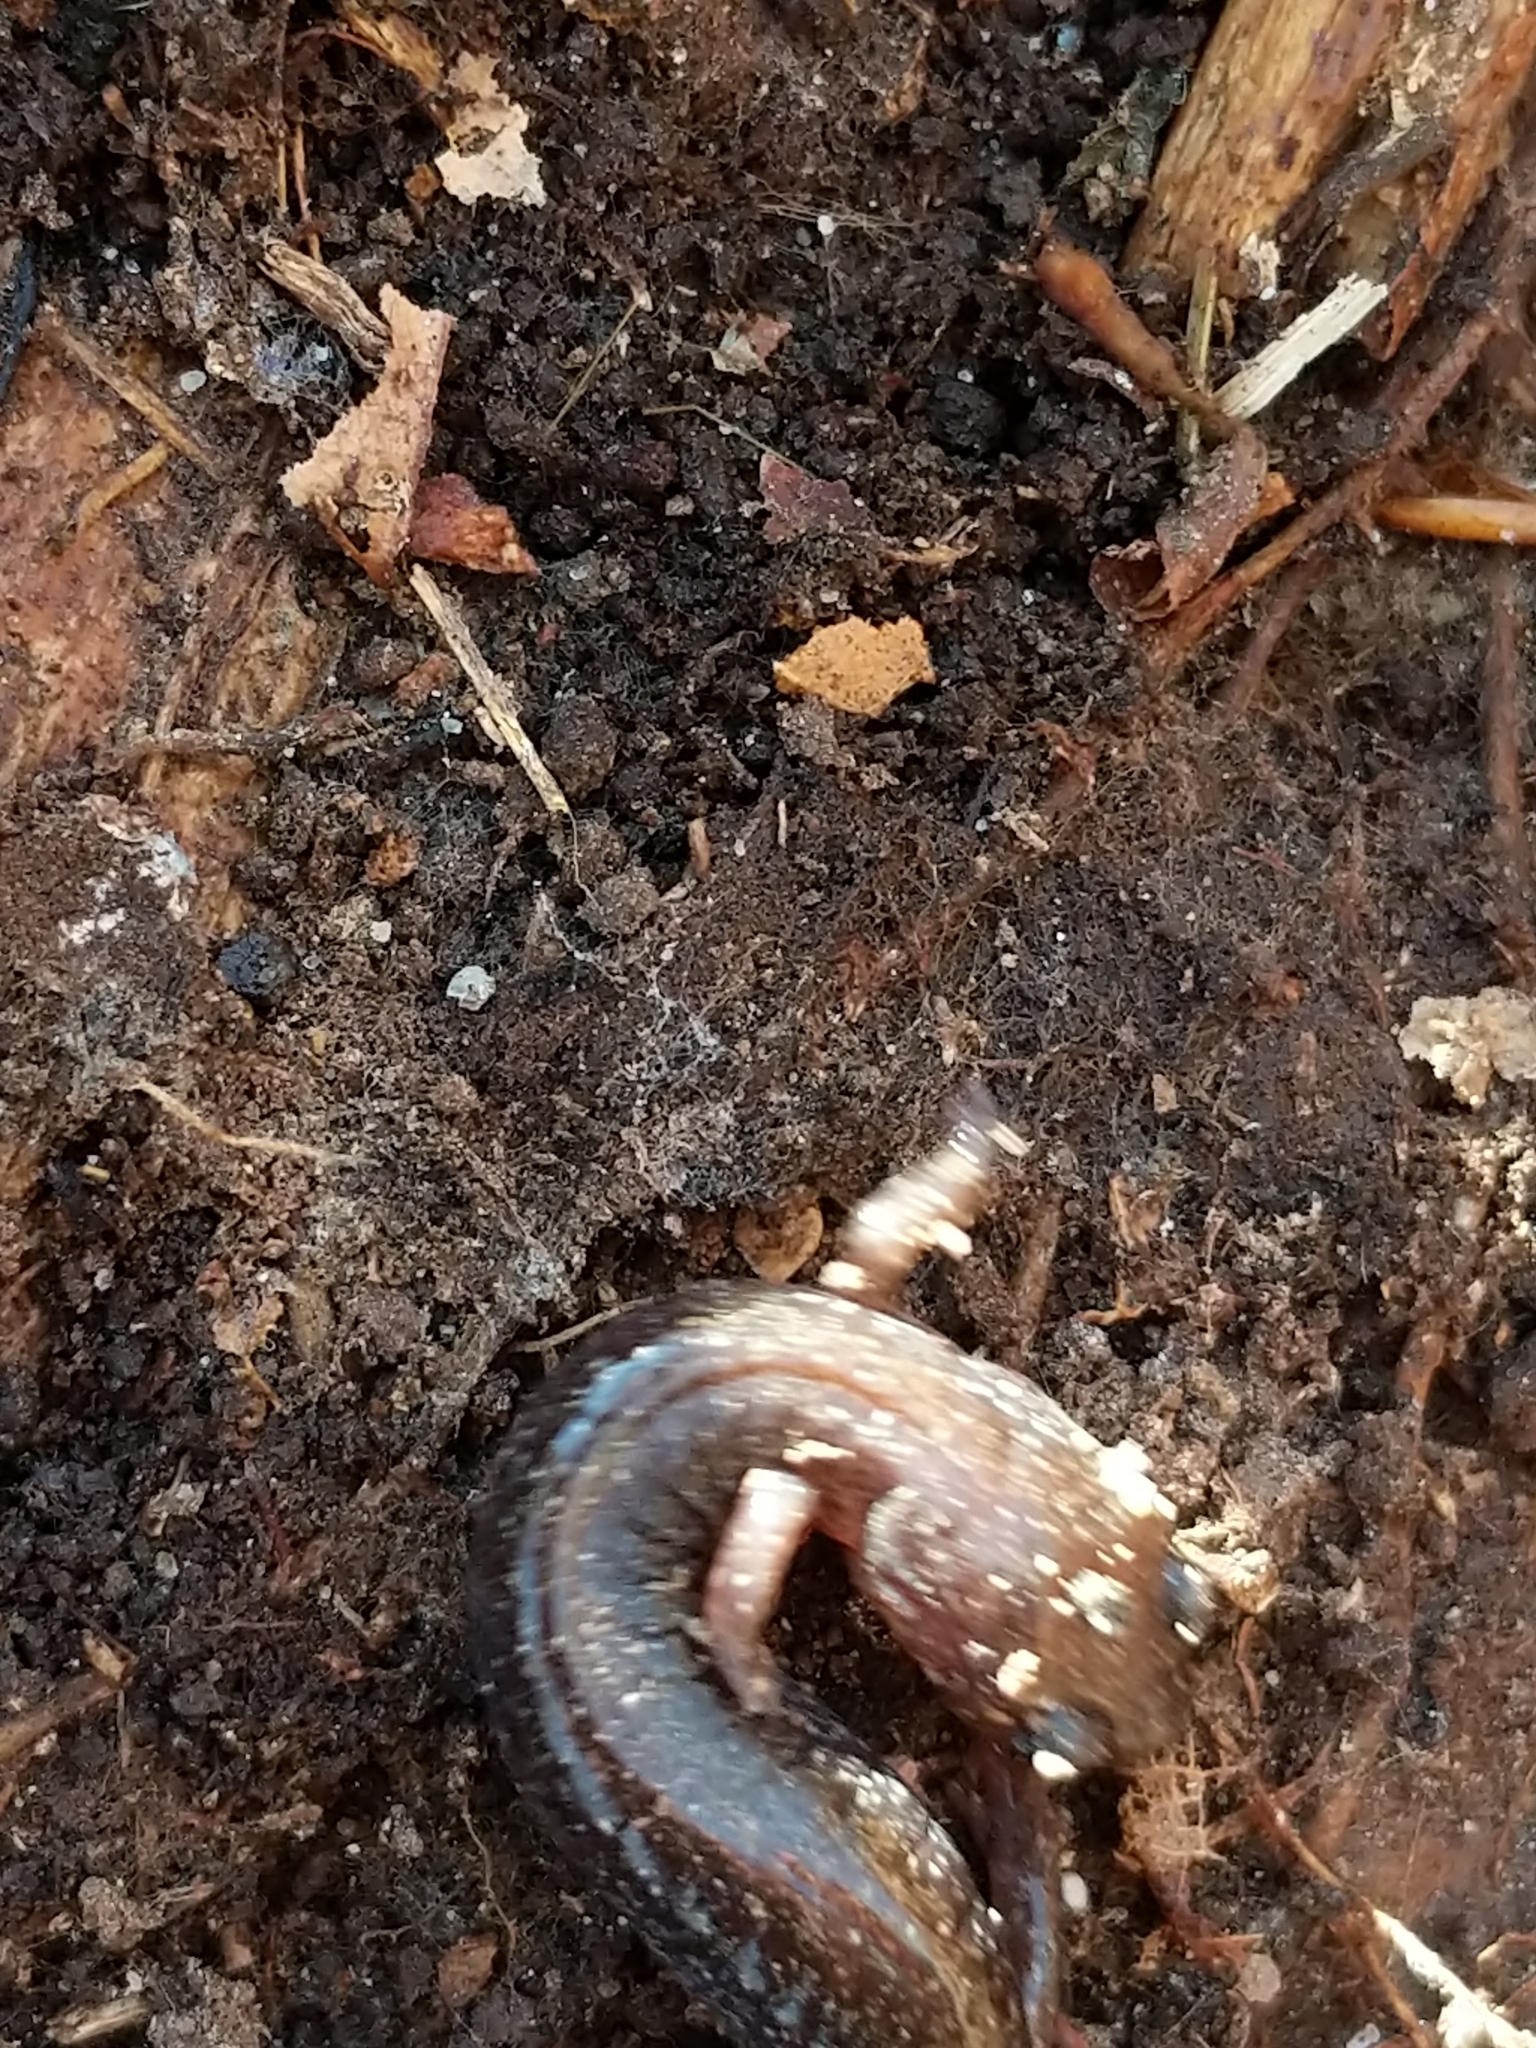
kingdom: Animalia
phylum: Chordata
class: Amphibia
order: Caudata
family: Plethodontidae
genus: Plethodon
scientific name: Plethodon cinereus
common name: Redback salamander
